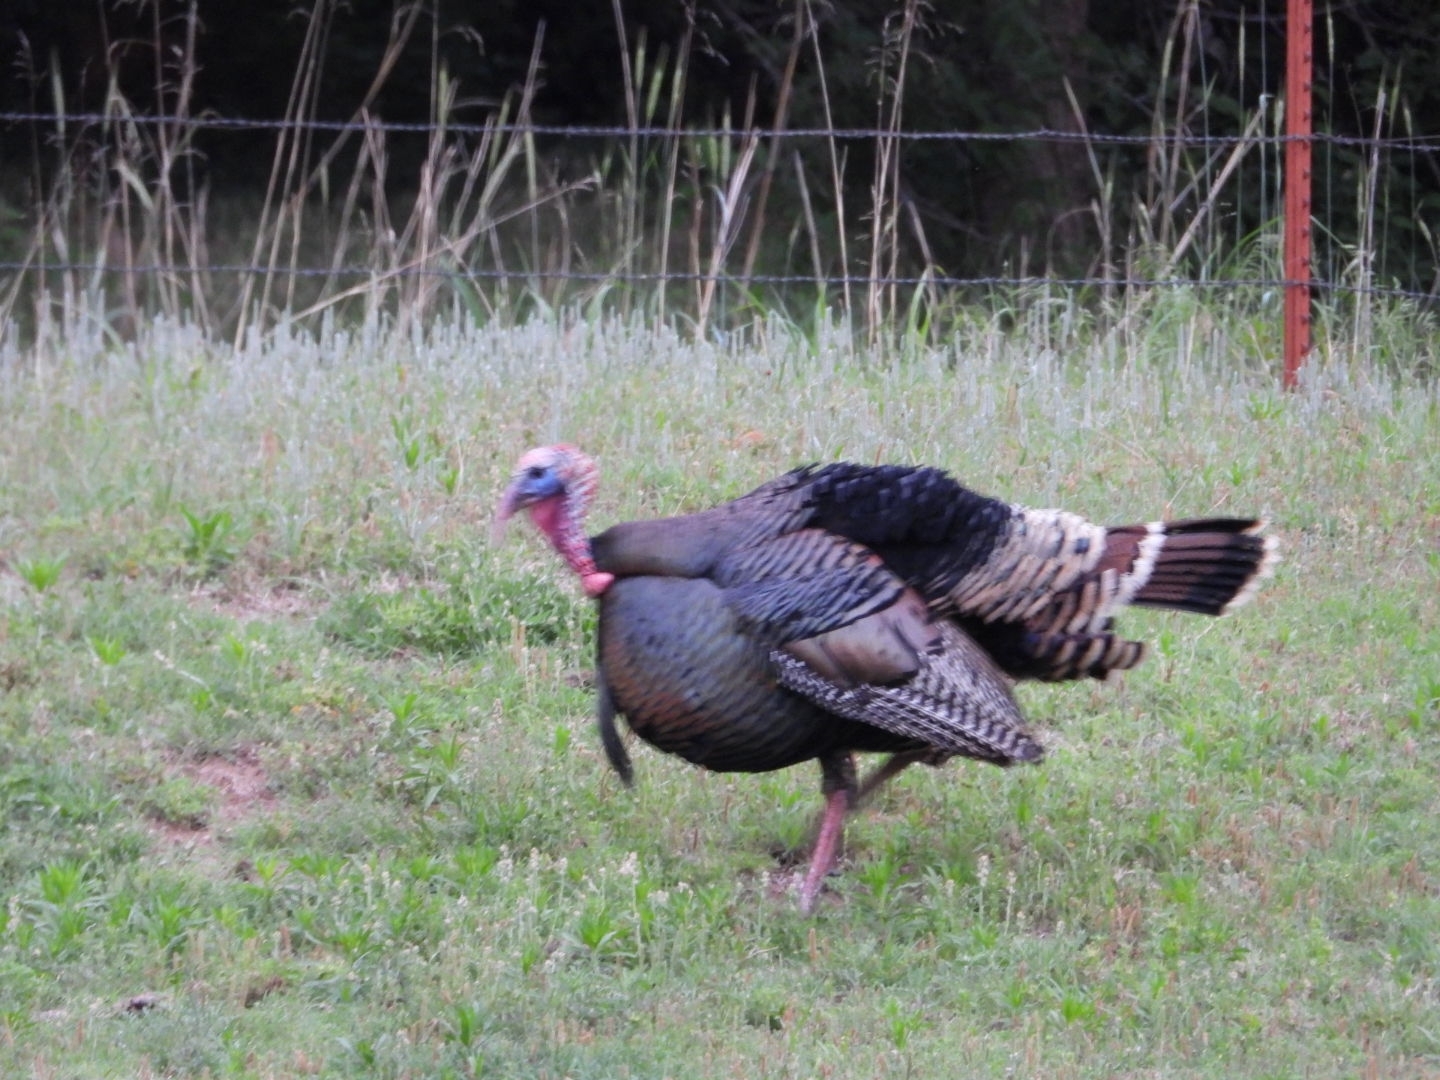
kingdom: Animalia
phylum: Chordata
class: Aves
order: Galliformes
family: Phasianidae
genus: Meleagris
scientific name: Meleagris gallopavo
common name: Wild turkey
